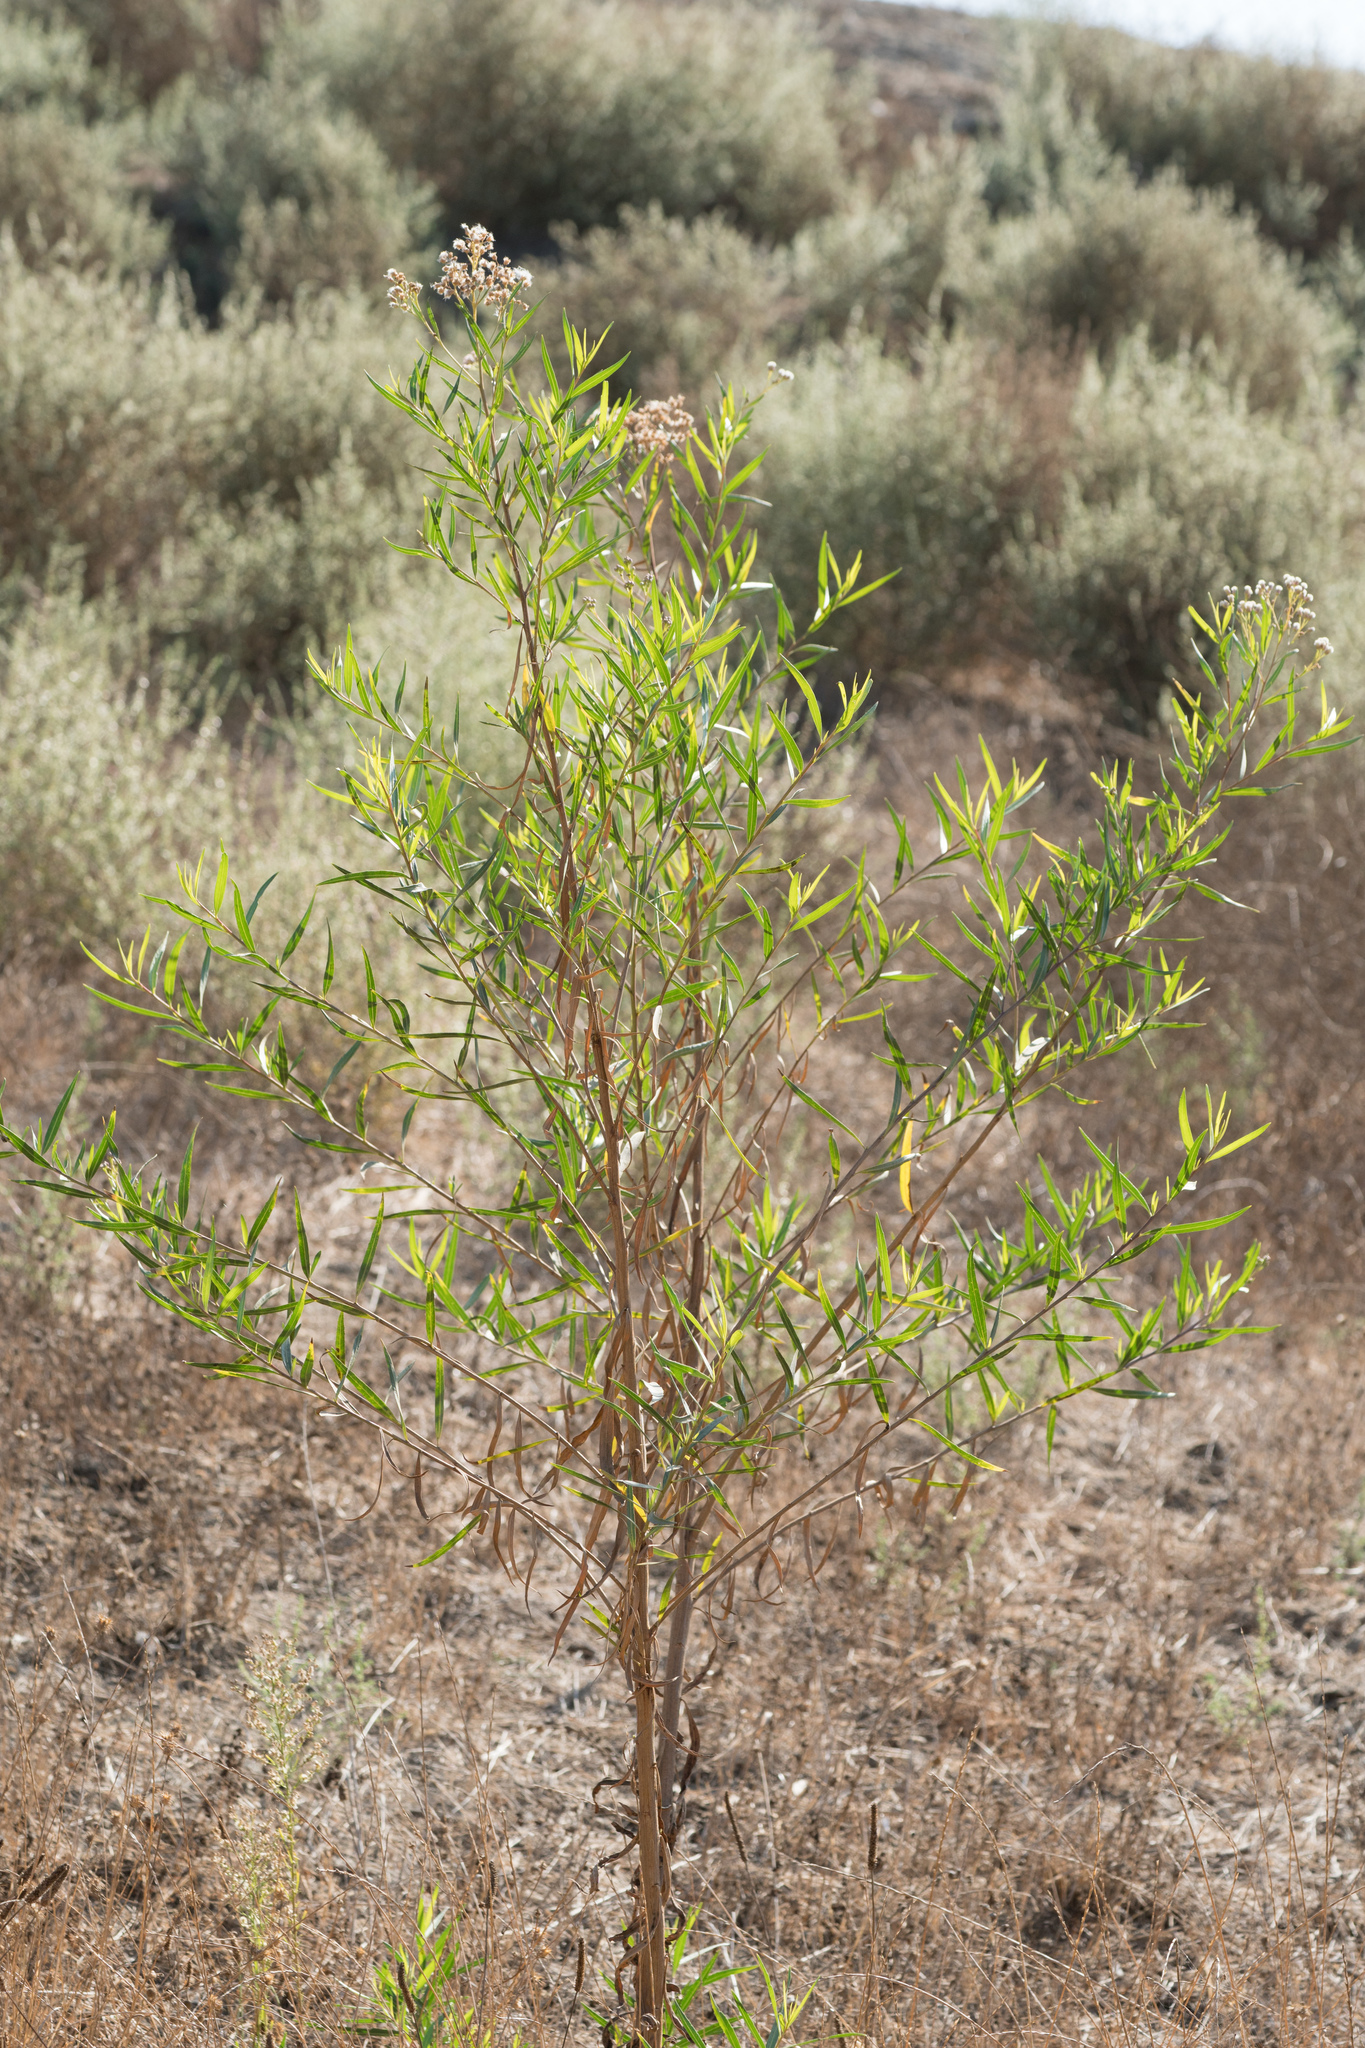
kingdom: Plantae
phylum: Tracheophyta
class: Magnoliopsida
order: Asterales
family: Asteraceae
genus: Baccharis
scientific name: Baccharis salicifolia
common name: Sticky baccharis
